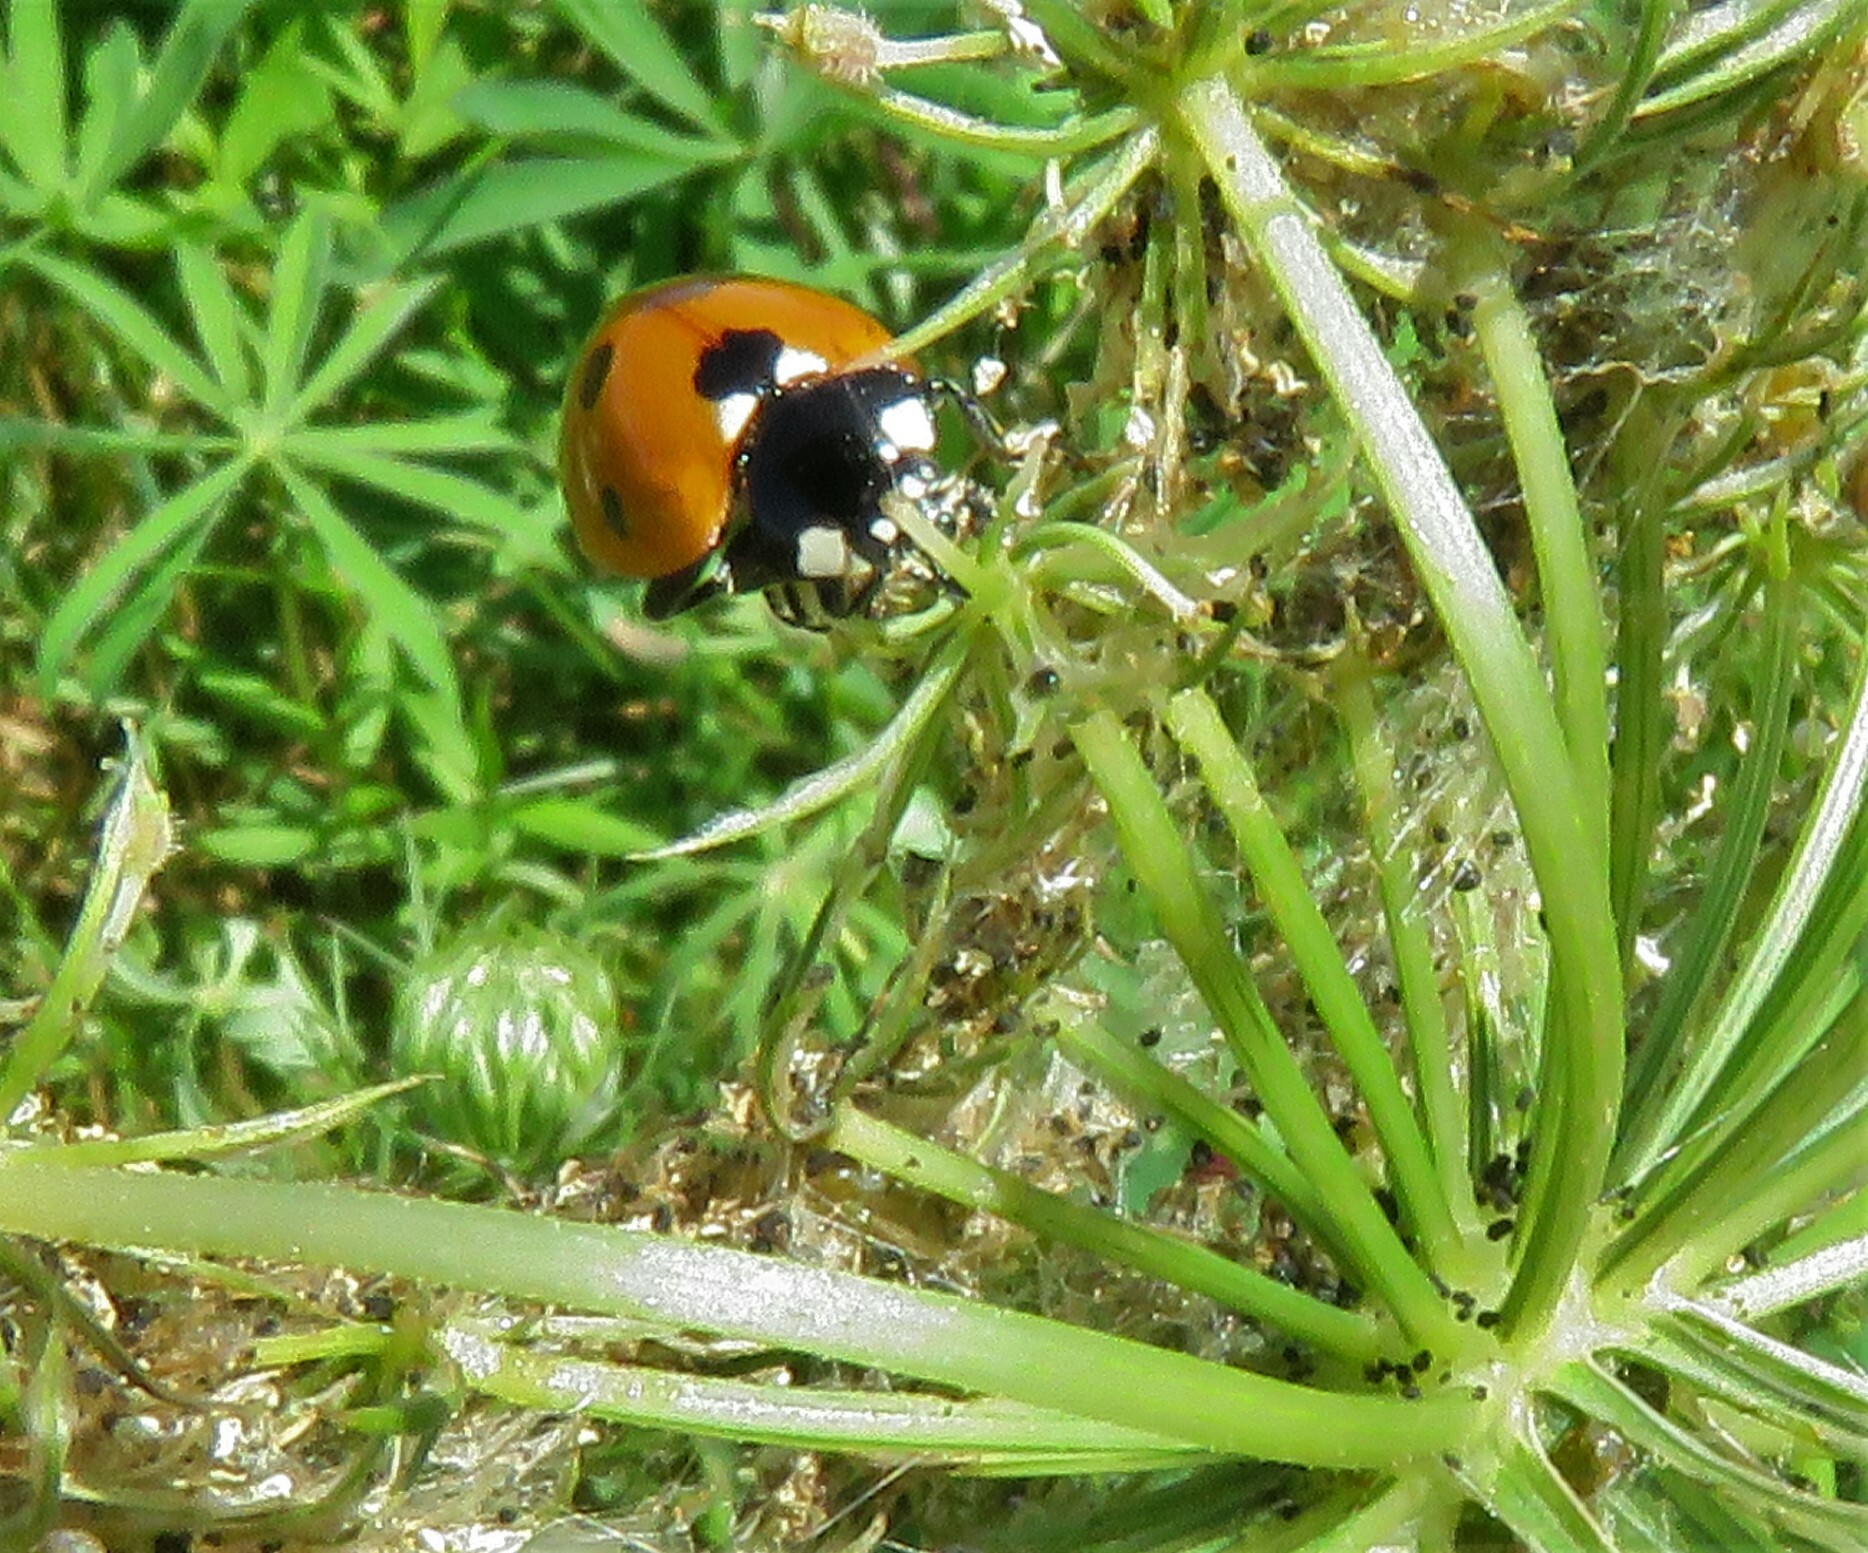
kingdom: Animalia
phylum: Arthropoda
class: Insecta
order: Coleoptera
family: Coccinellidae
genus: Coccinella
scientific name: Coccinella septempunctata
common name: Sevenspotted lady beetle
